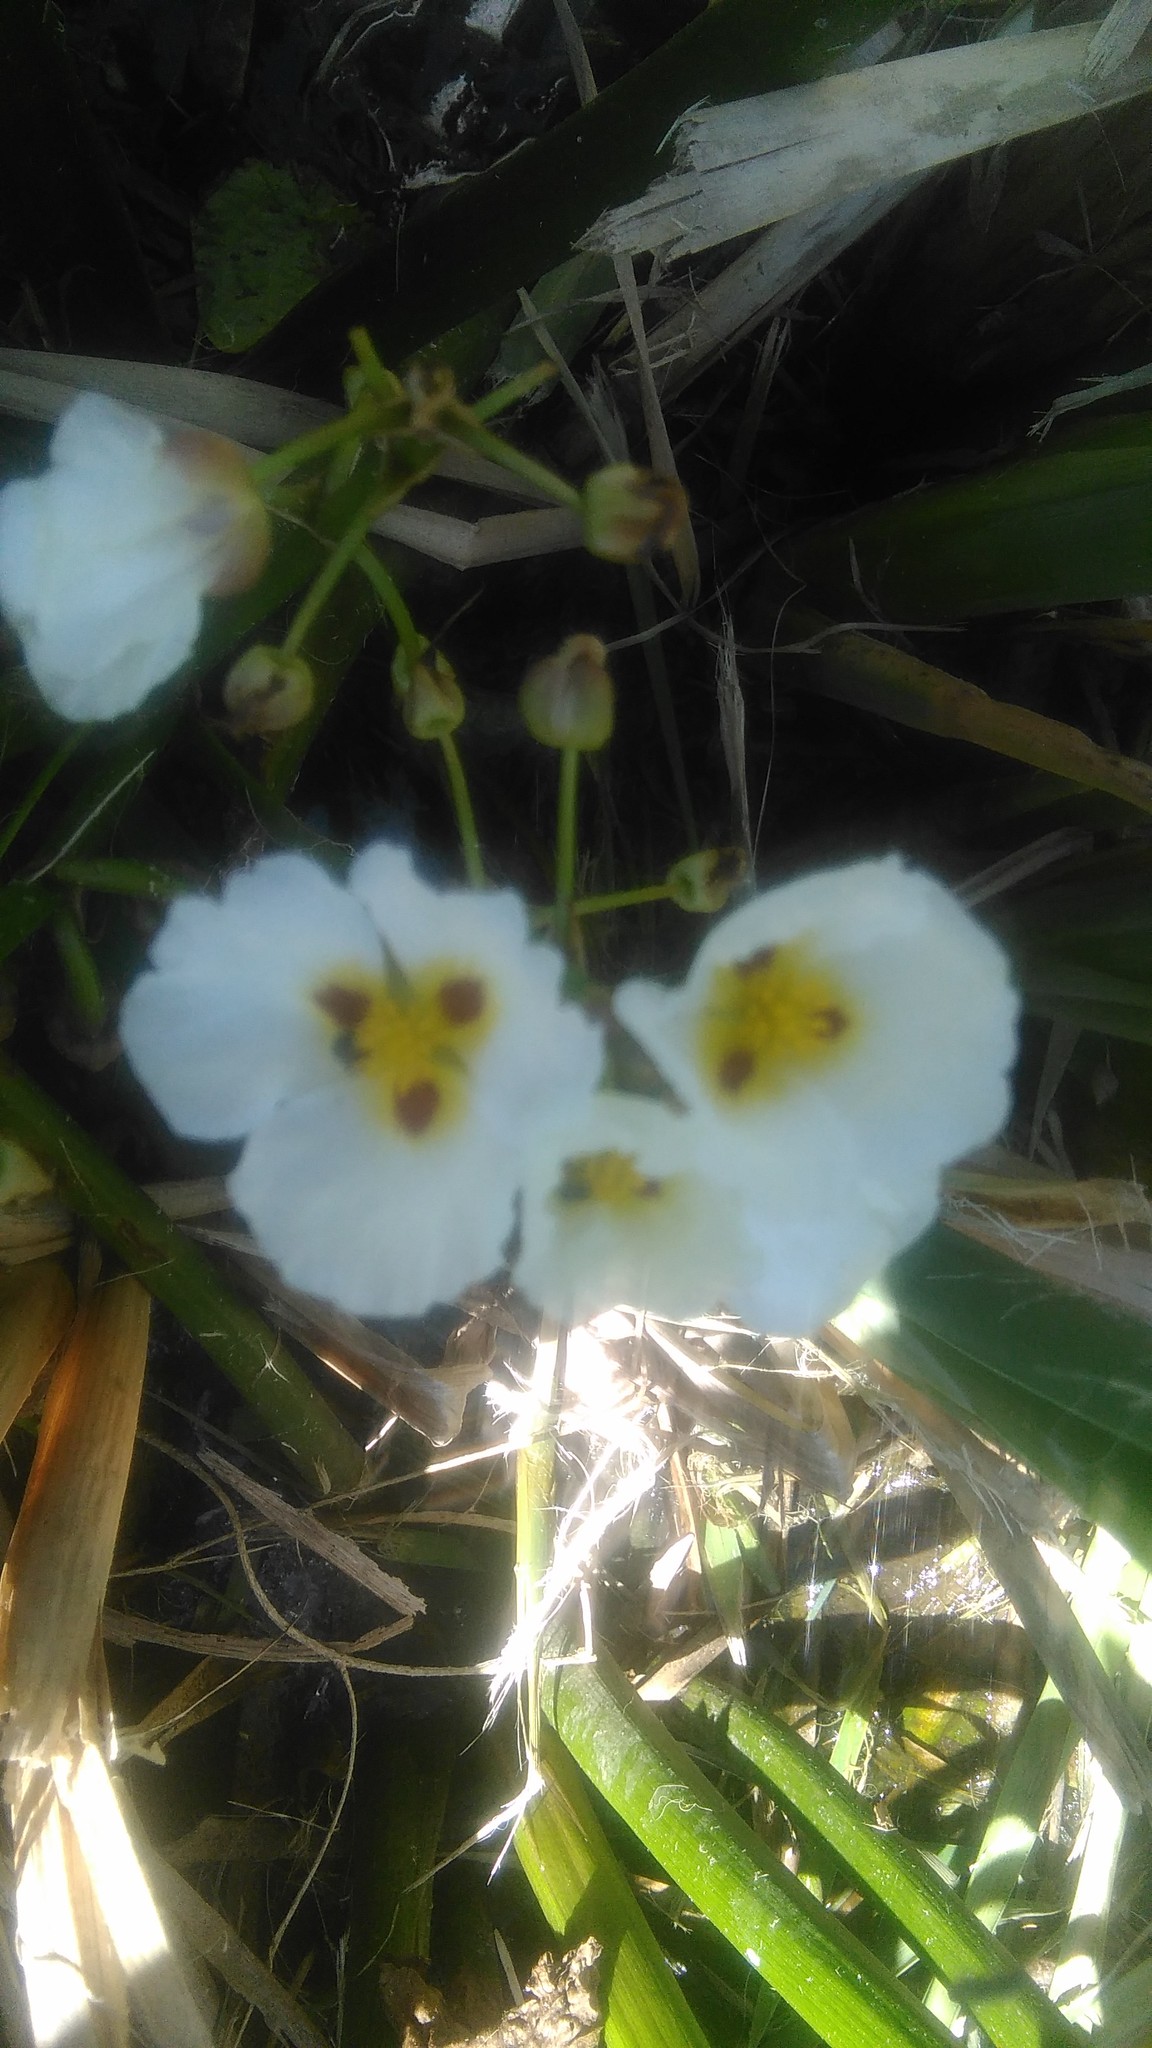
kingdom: Plantae
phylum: Tracheophyta
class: Liliopsida
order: Alismatales
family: Alismataceae
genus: Sagittaria
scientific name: Sagittaria montevidensis
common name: Giant arrowhead
